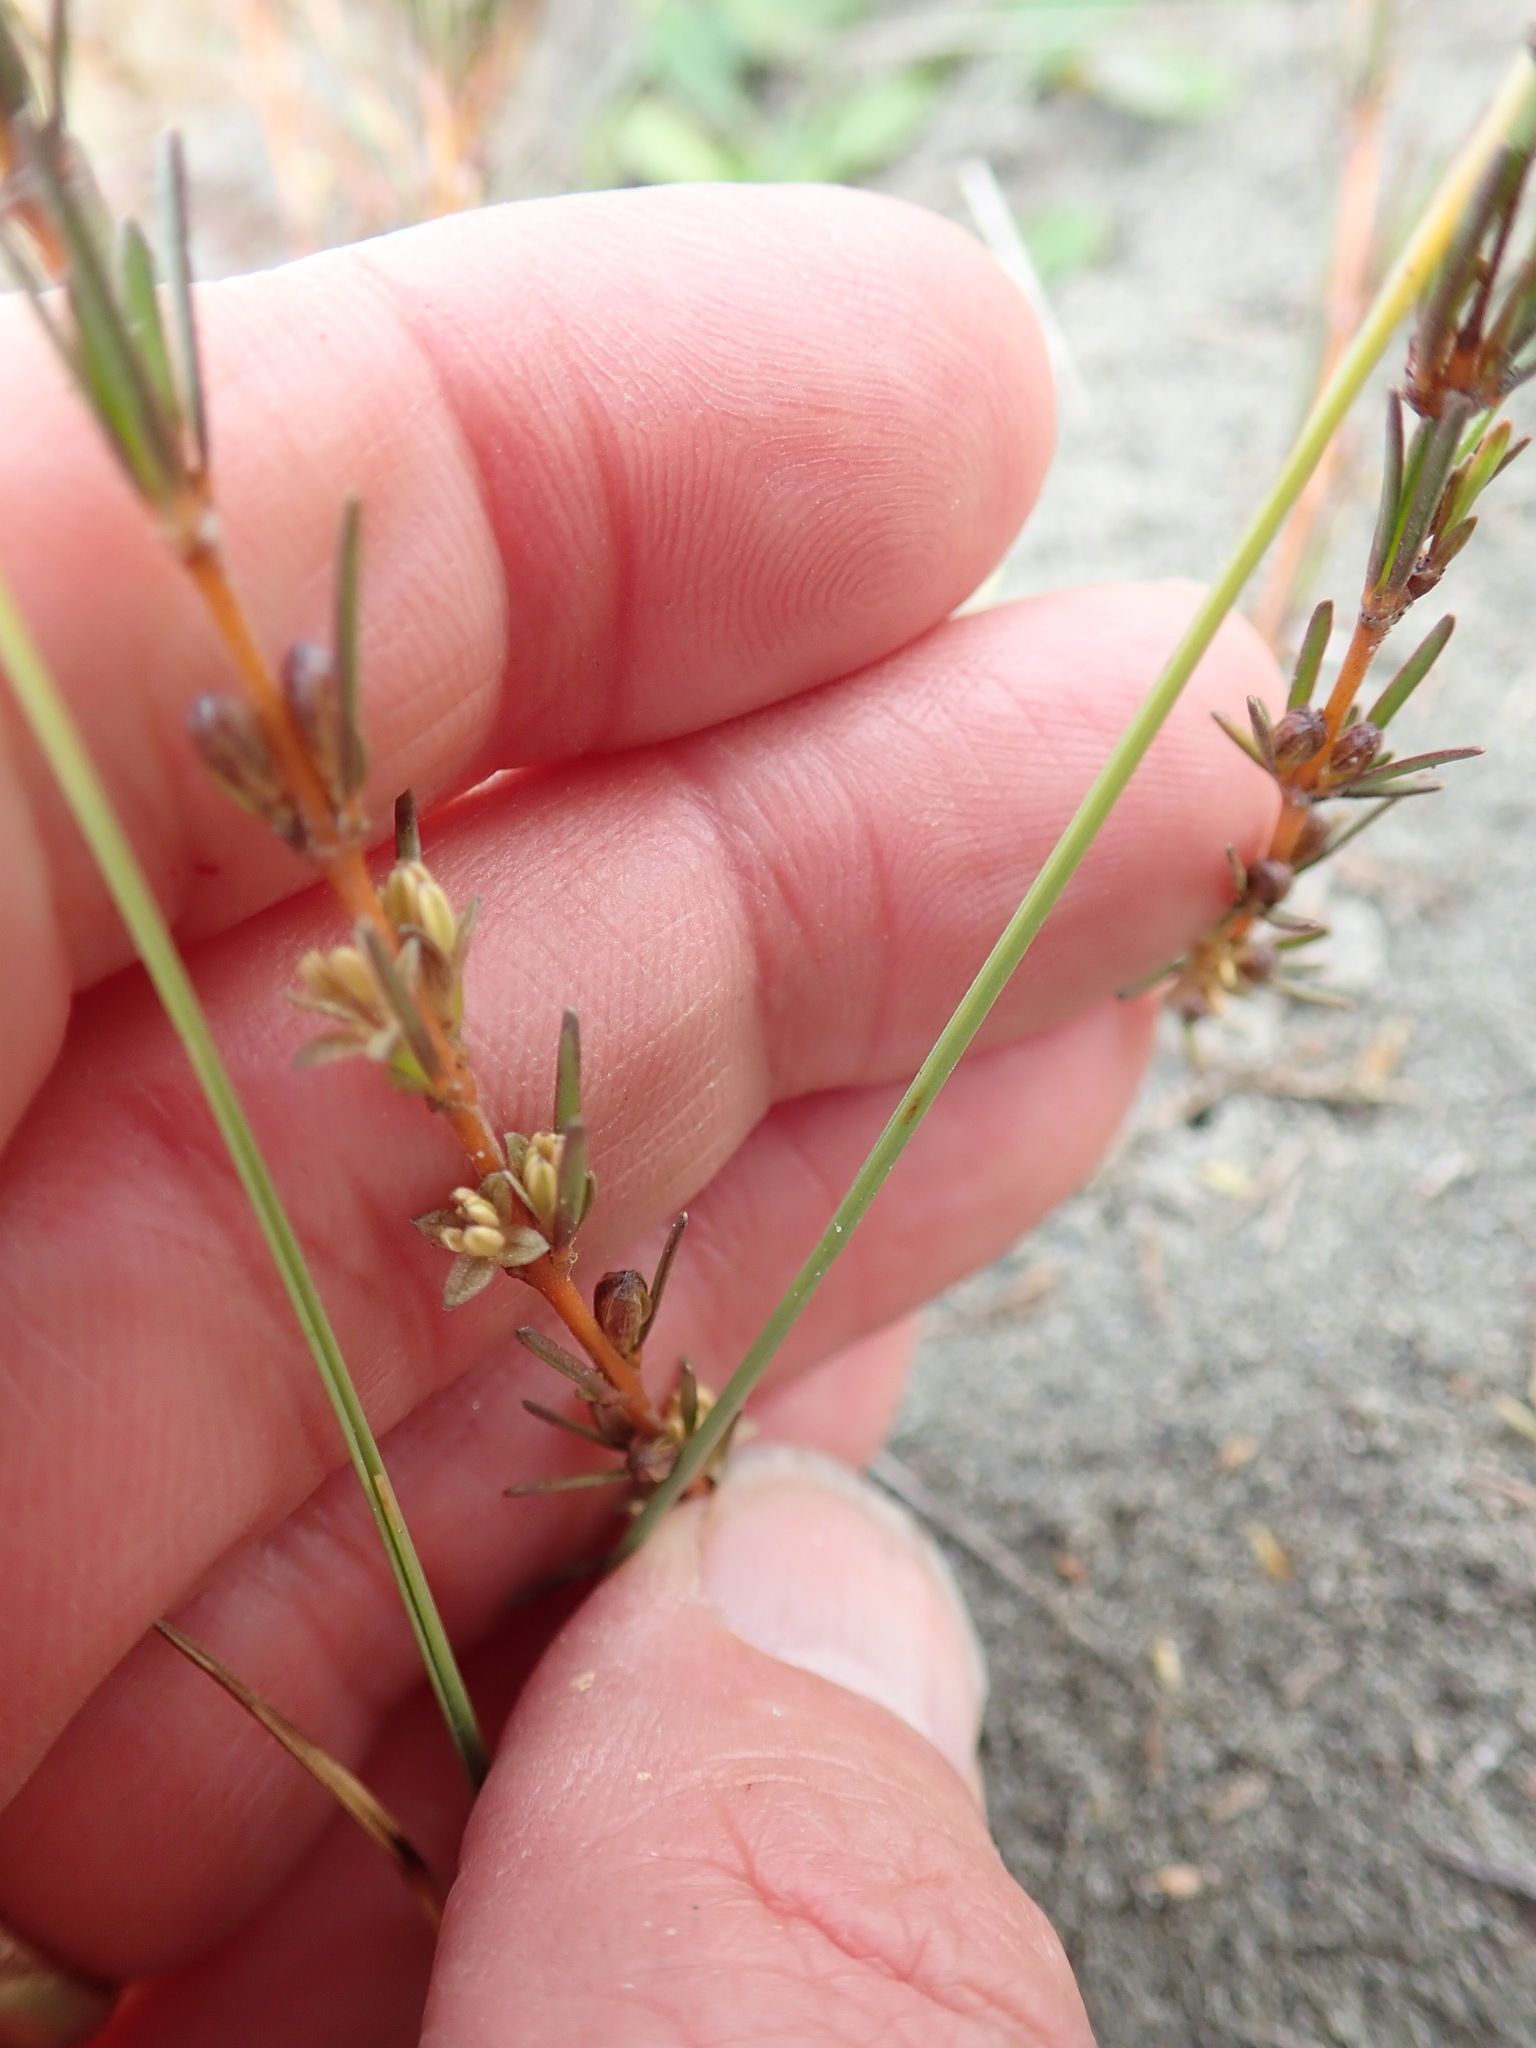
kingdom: Plantae
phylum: Tracheophyta
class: Magnoliopsida
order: Gentianales
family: Rubiaceae
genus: Coprosma
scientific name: Coprosma acerosa
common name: Sand coprosma
